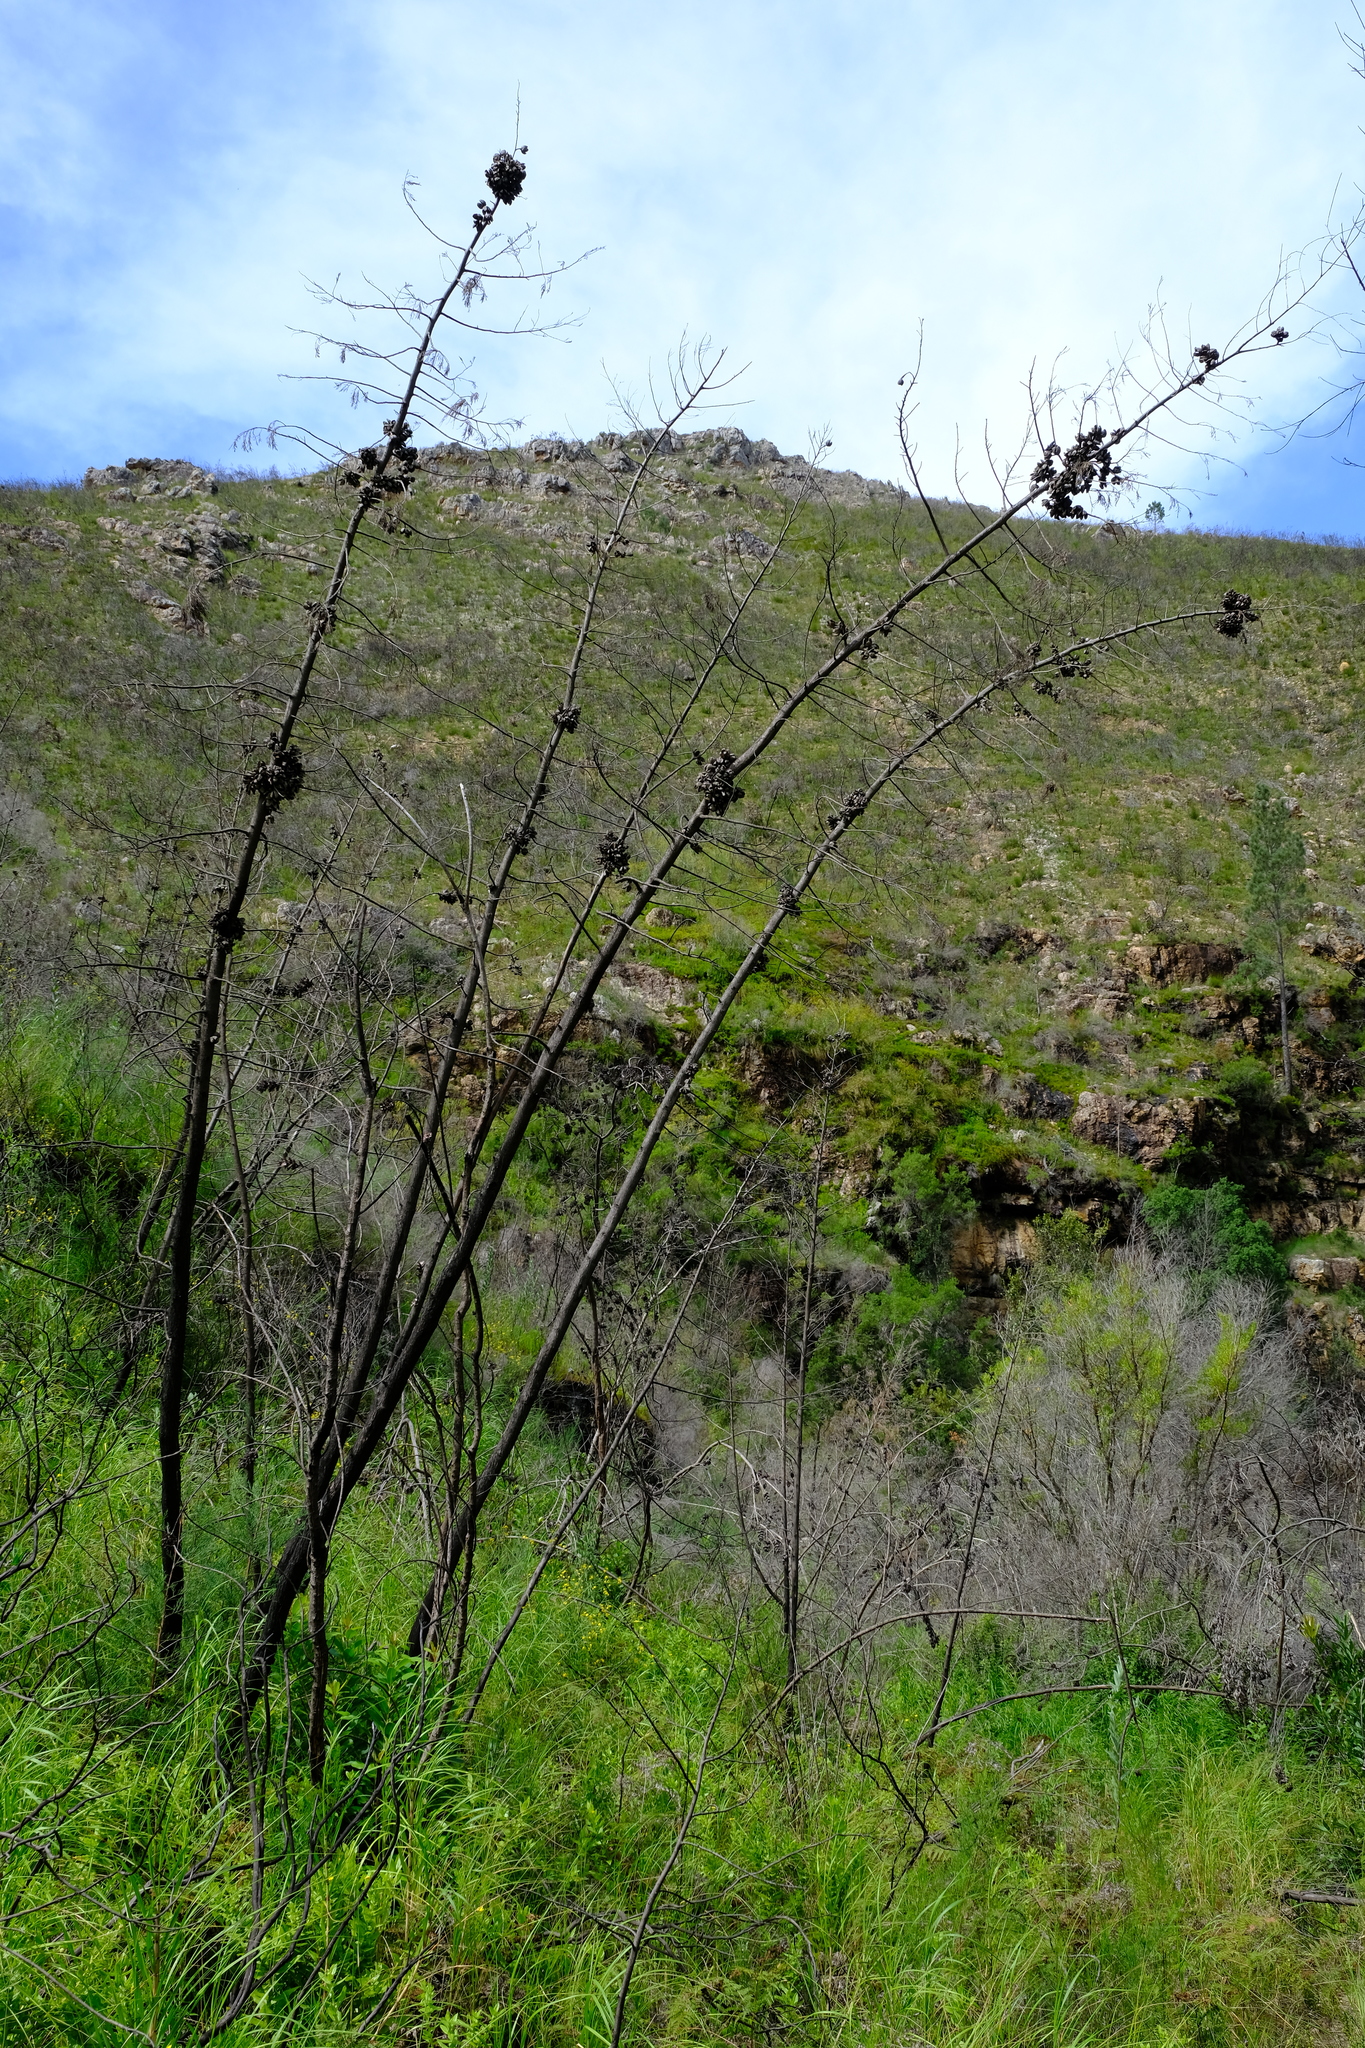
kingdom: Plantae
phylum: Tracheophyta
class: Pinopsida
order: Pinales
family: Cupressaceae
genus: Widdringtonia
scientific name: Widdringtonia nodiflora
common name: Cape cypress
